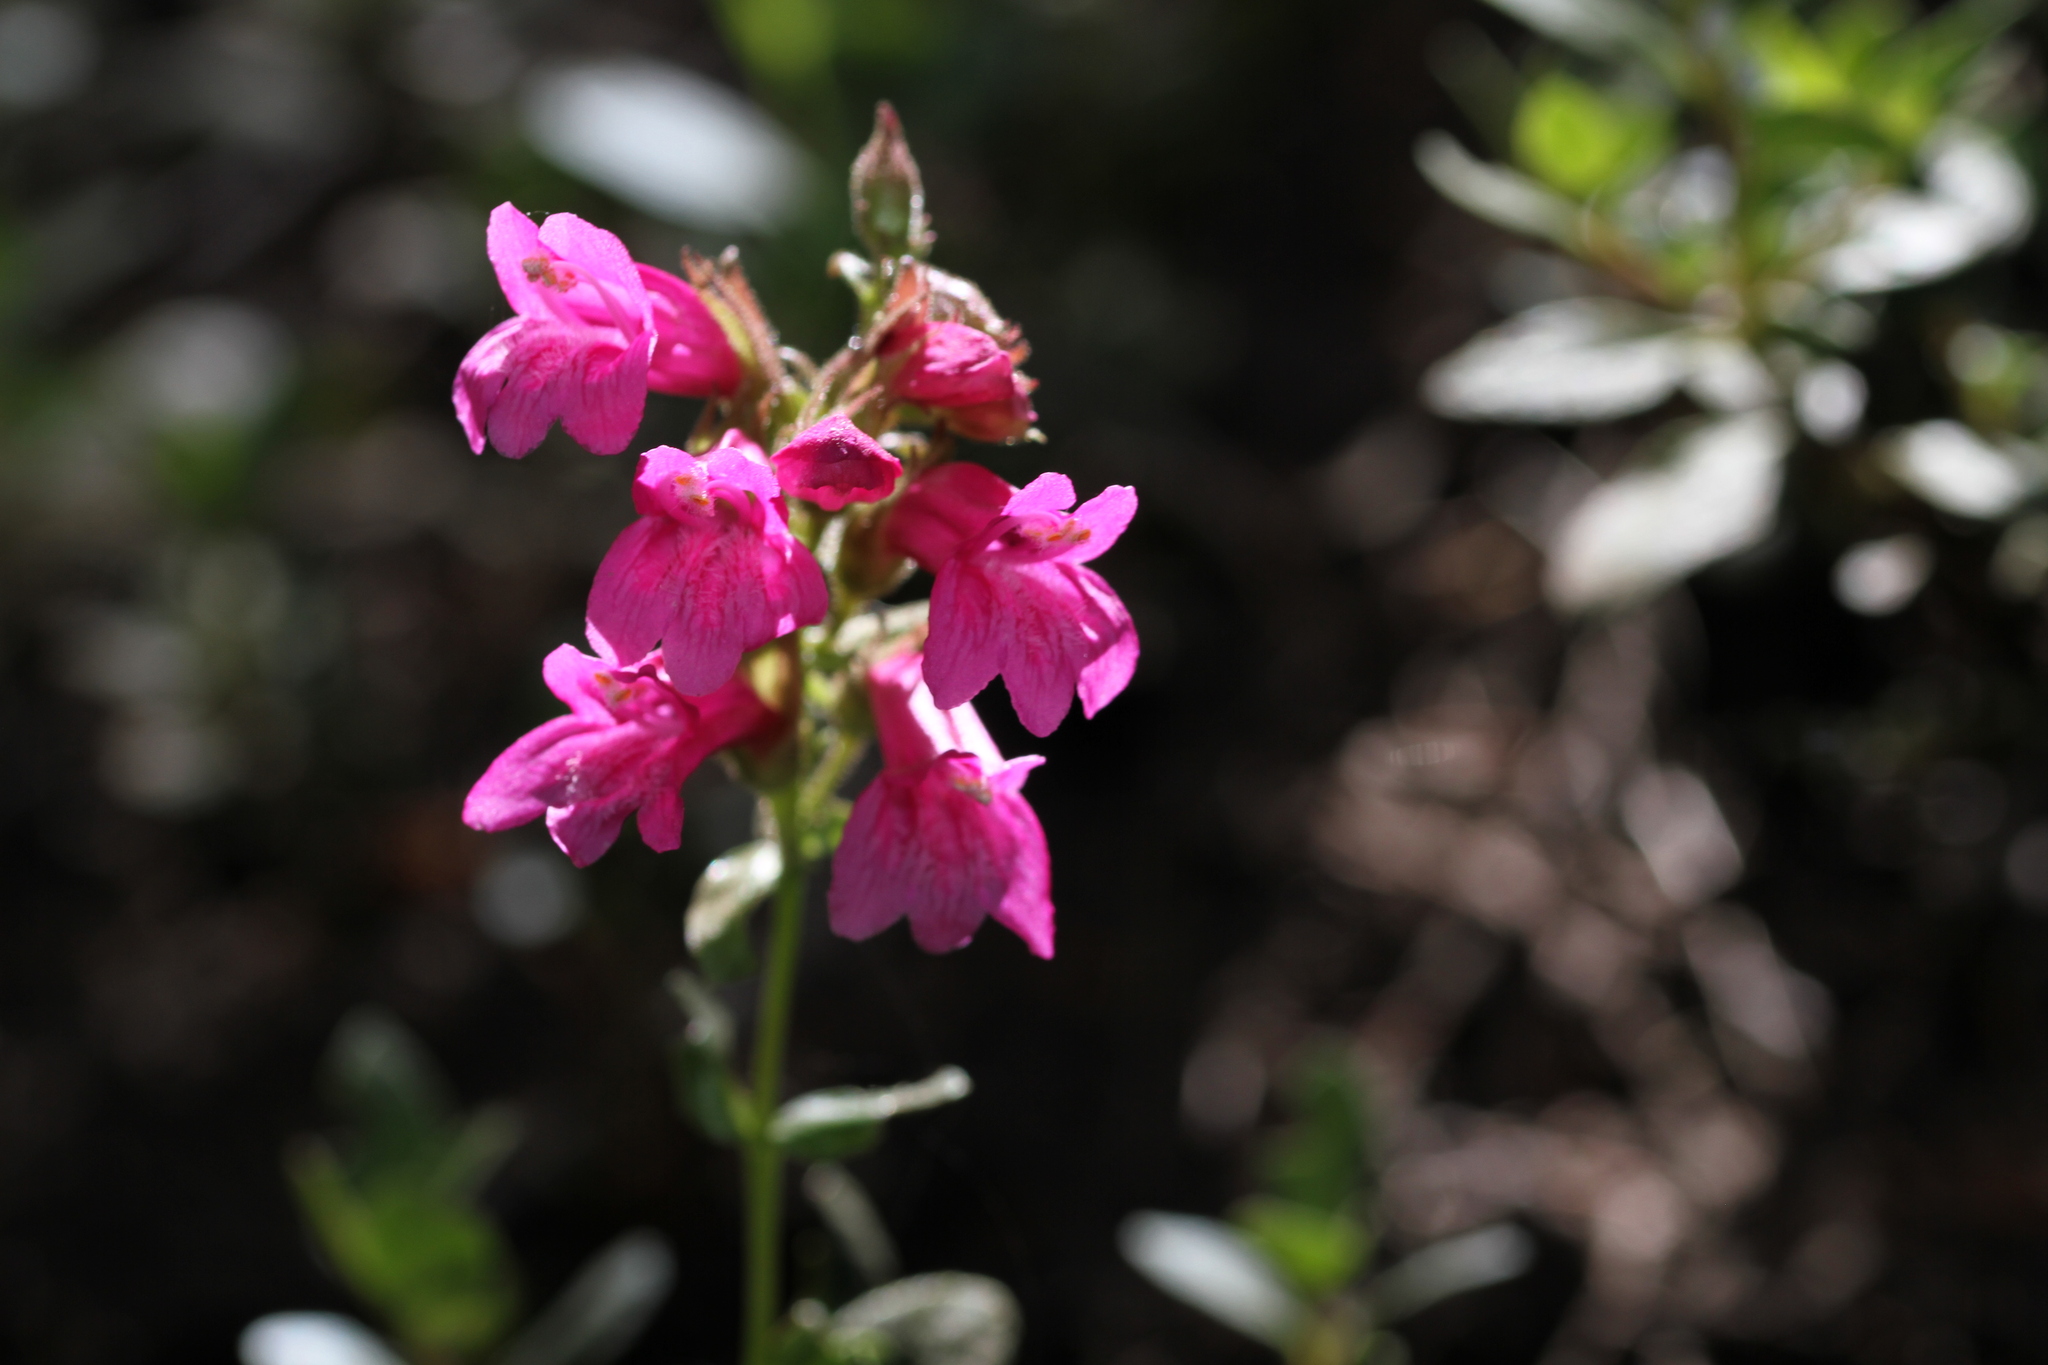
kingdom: Plantae
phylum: Tracheophyta
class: Magnoliopsida
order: Lamiales
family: Plantaginaceae
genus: Penstemon
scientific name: Penstemon newberryi
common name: Mountain-pride
